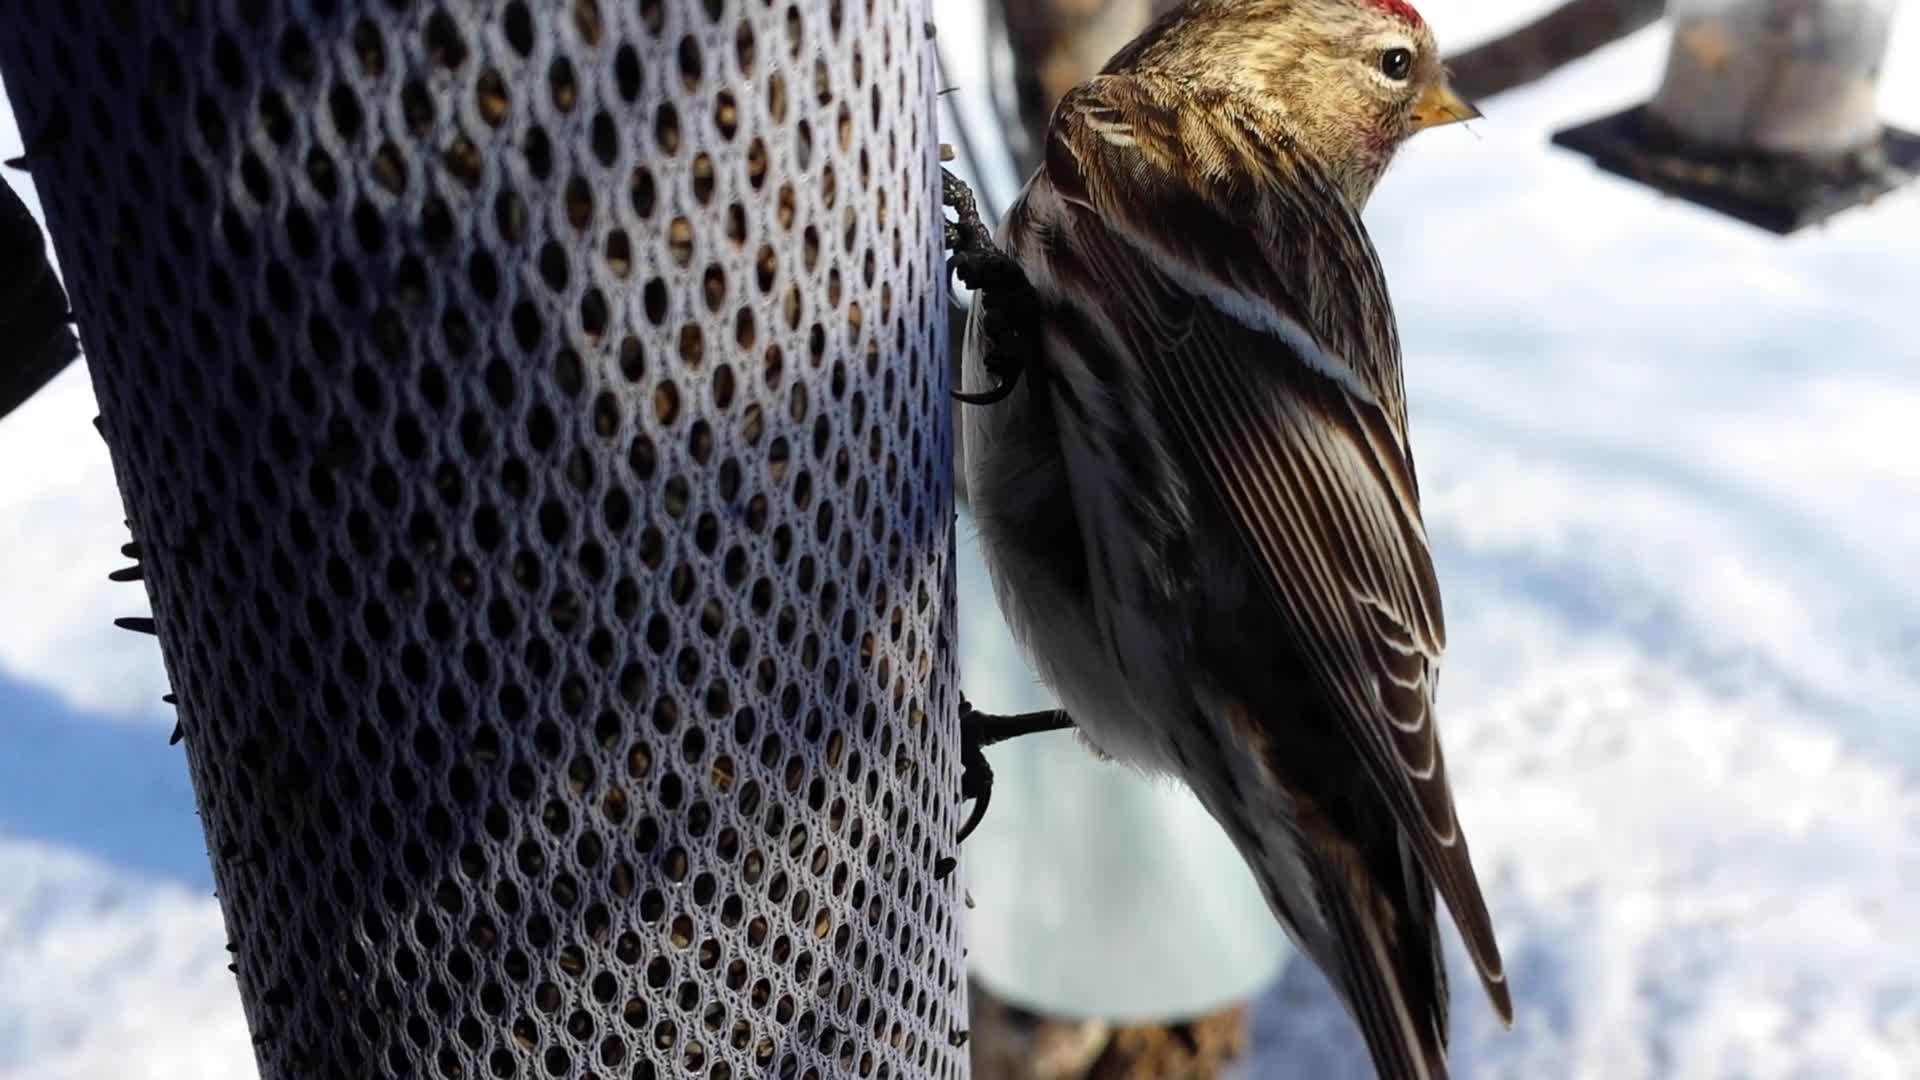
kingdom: Animalia
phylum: Chordata
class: Aves
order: Passeriformes
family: Fringillidae
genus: Acanthis
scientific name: Acanthis flammea
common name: Common redpoll
